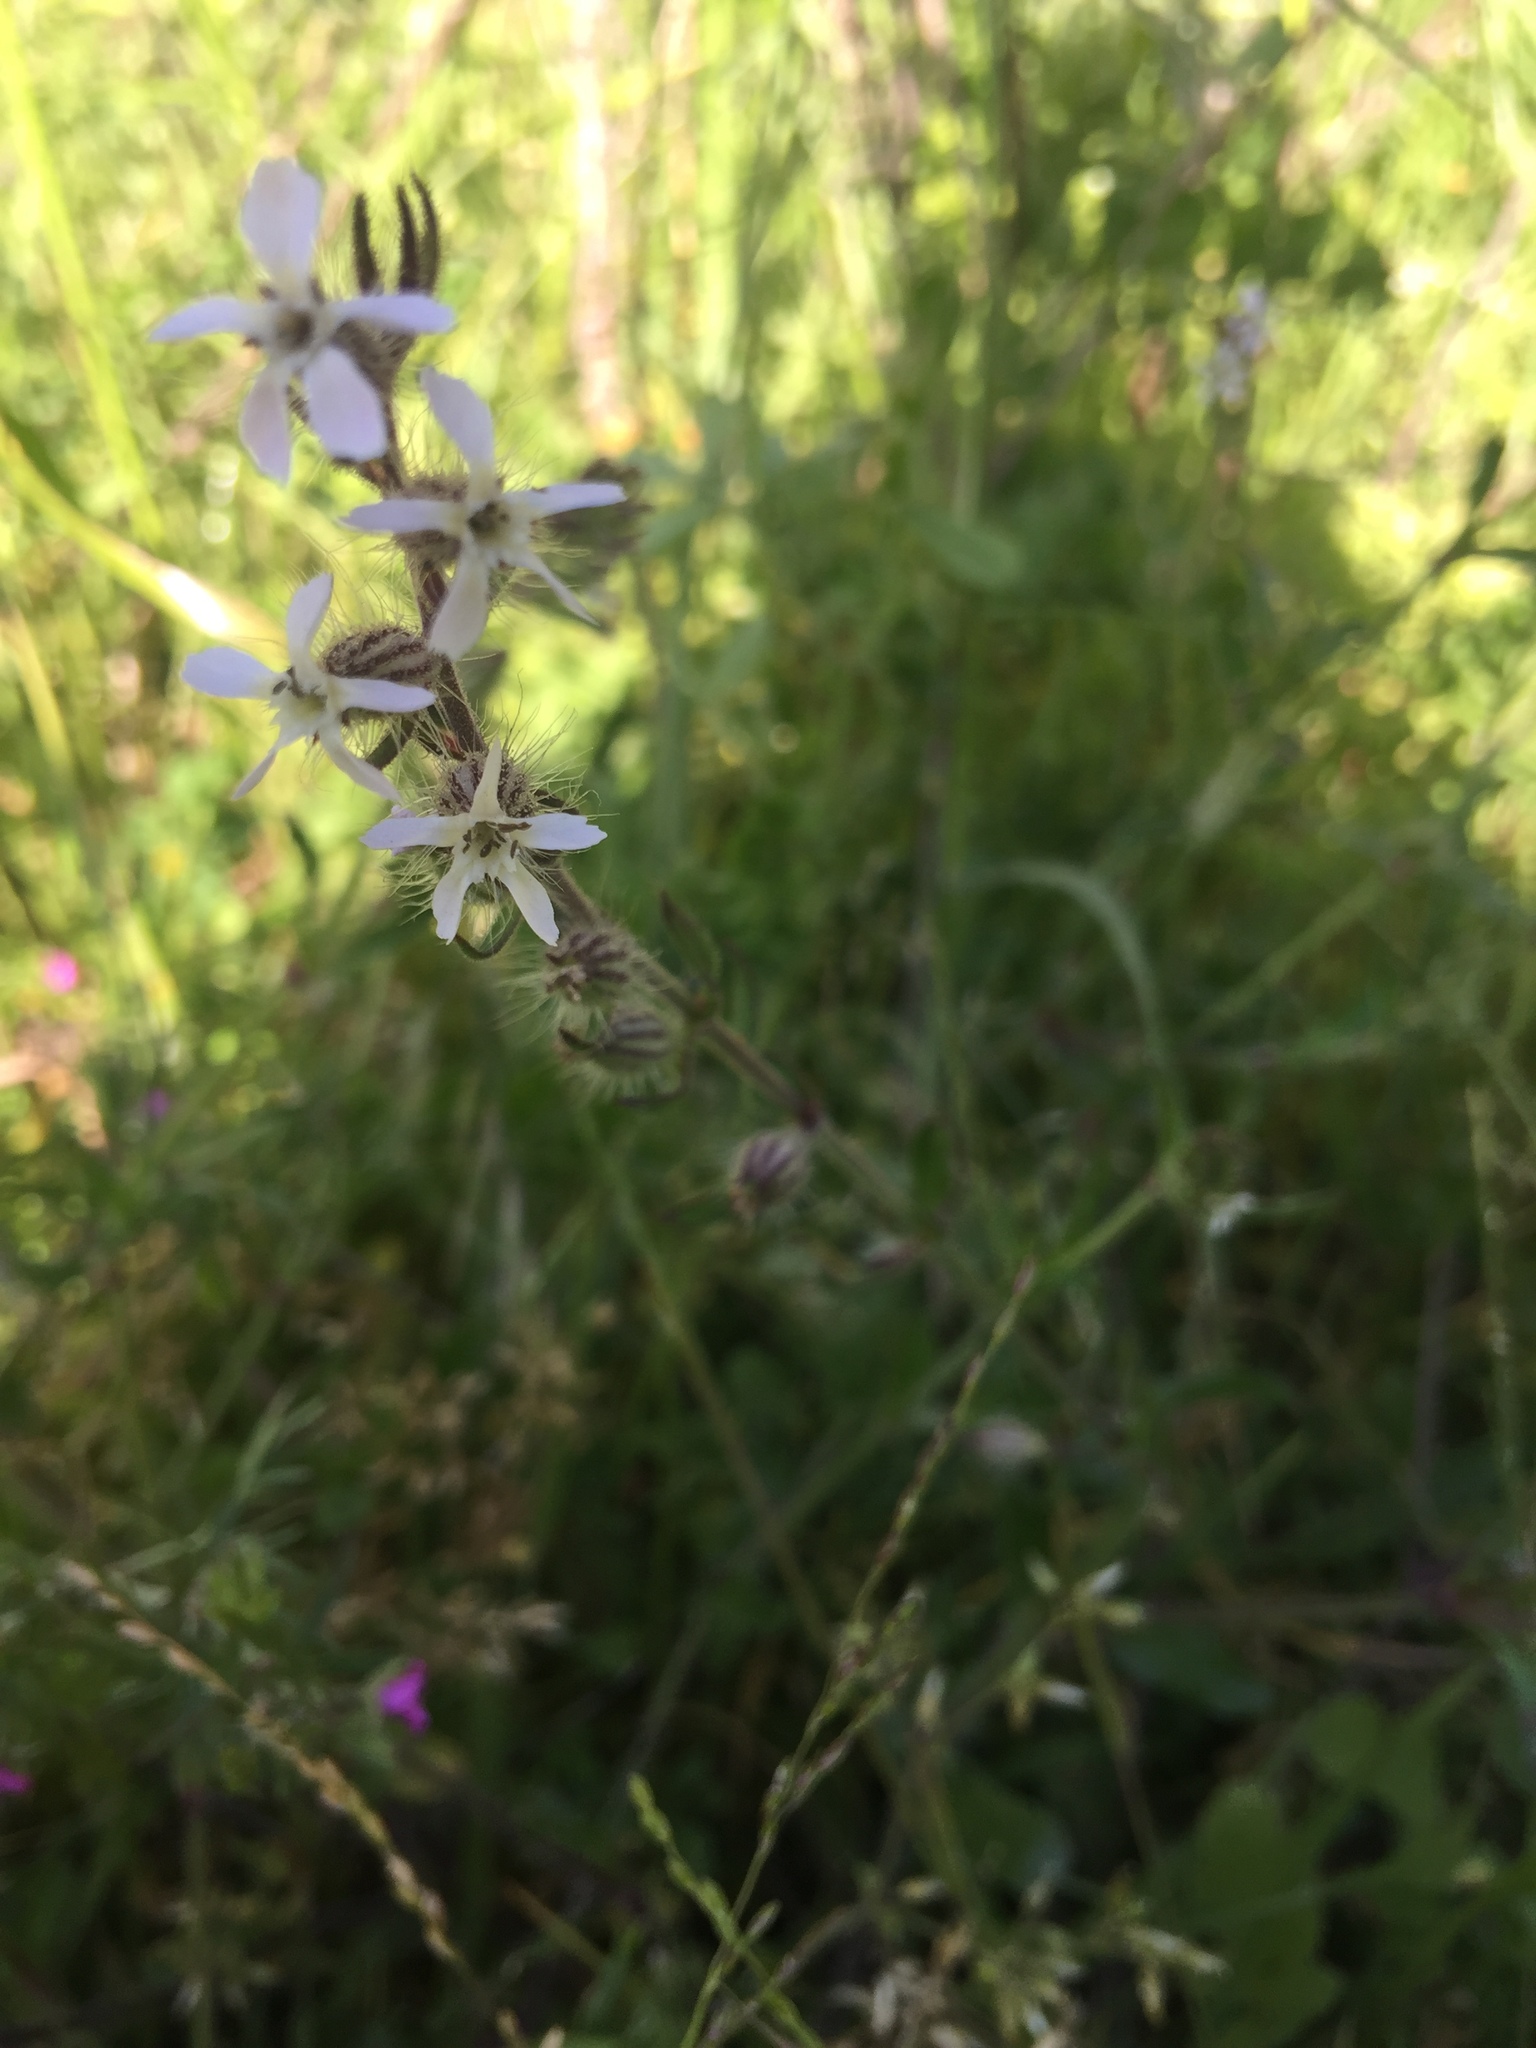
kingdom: Plantae
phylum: Tracheophyta
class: Magnoliopsida
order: Caryophyllales
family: Caryophyllaceae
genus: Silene
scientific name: Silene gallica
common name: Small-flowered catchfly
